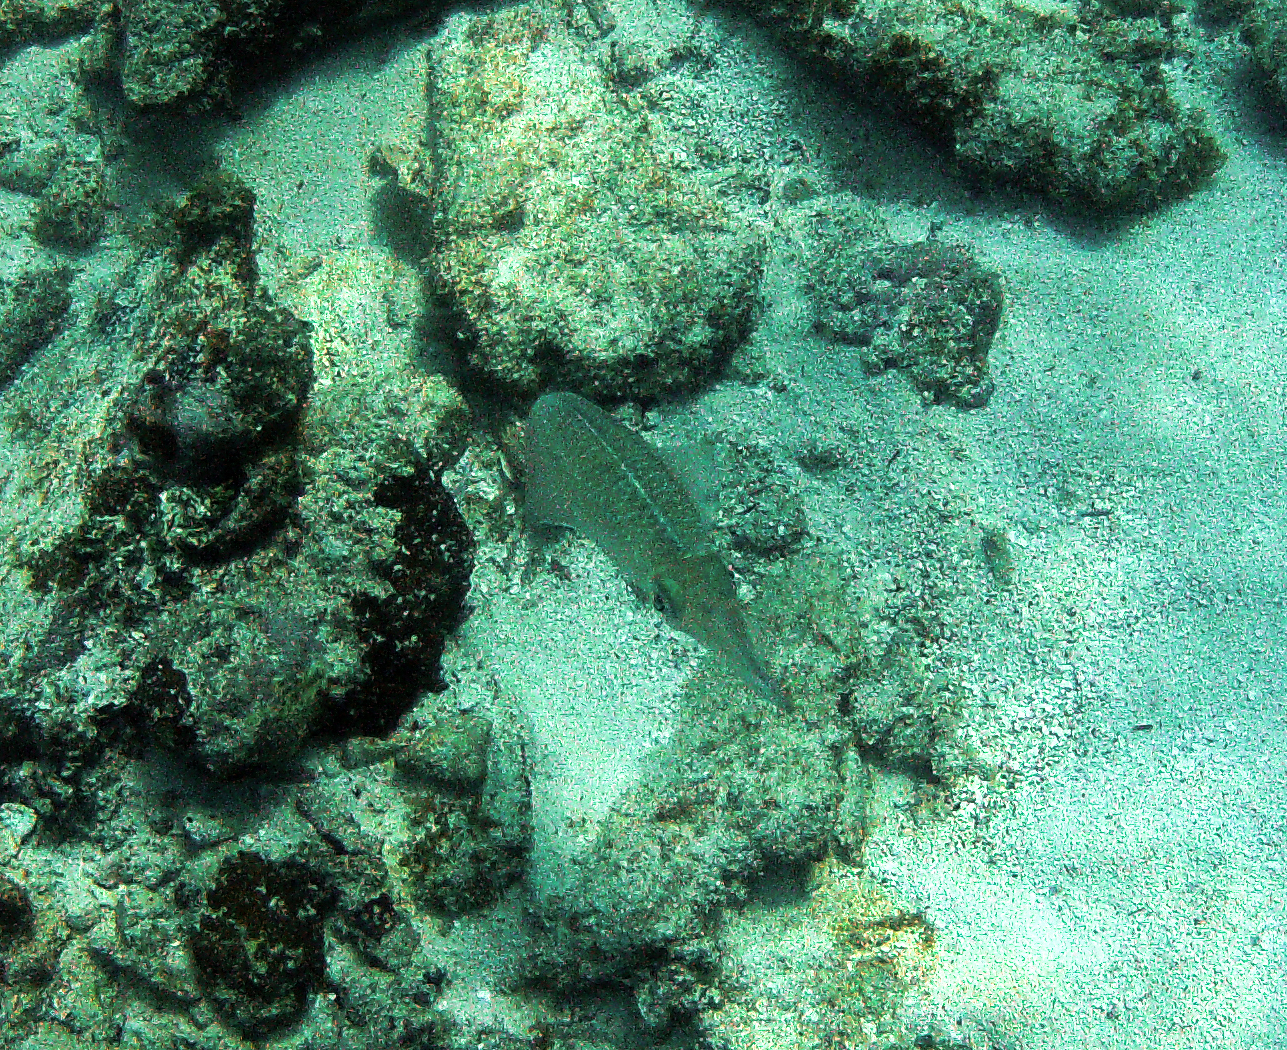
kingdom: Animalia
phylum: Mollusca
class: Cephalopoda
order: Myopsida
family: Loliginidae
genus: Sepioteuthis
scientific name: Sepioteuthis sepioidea
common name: Caribbean reef squid
